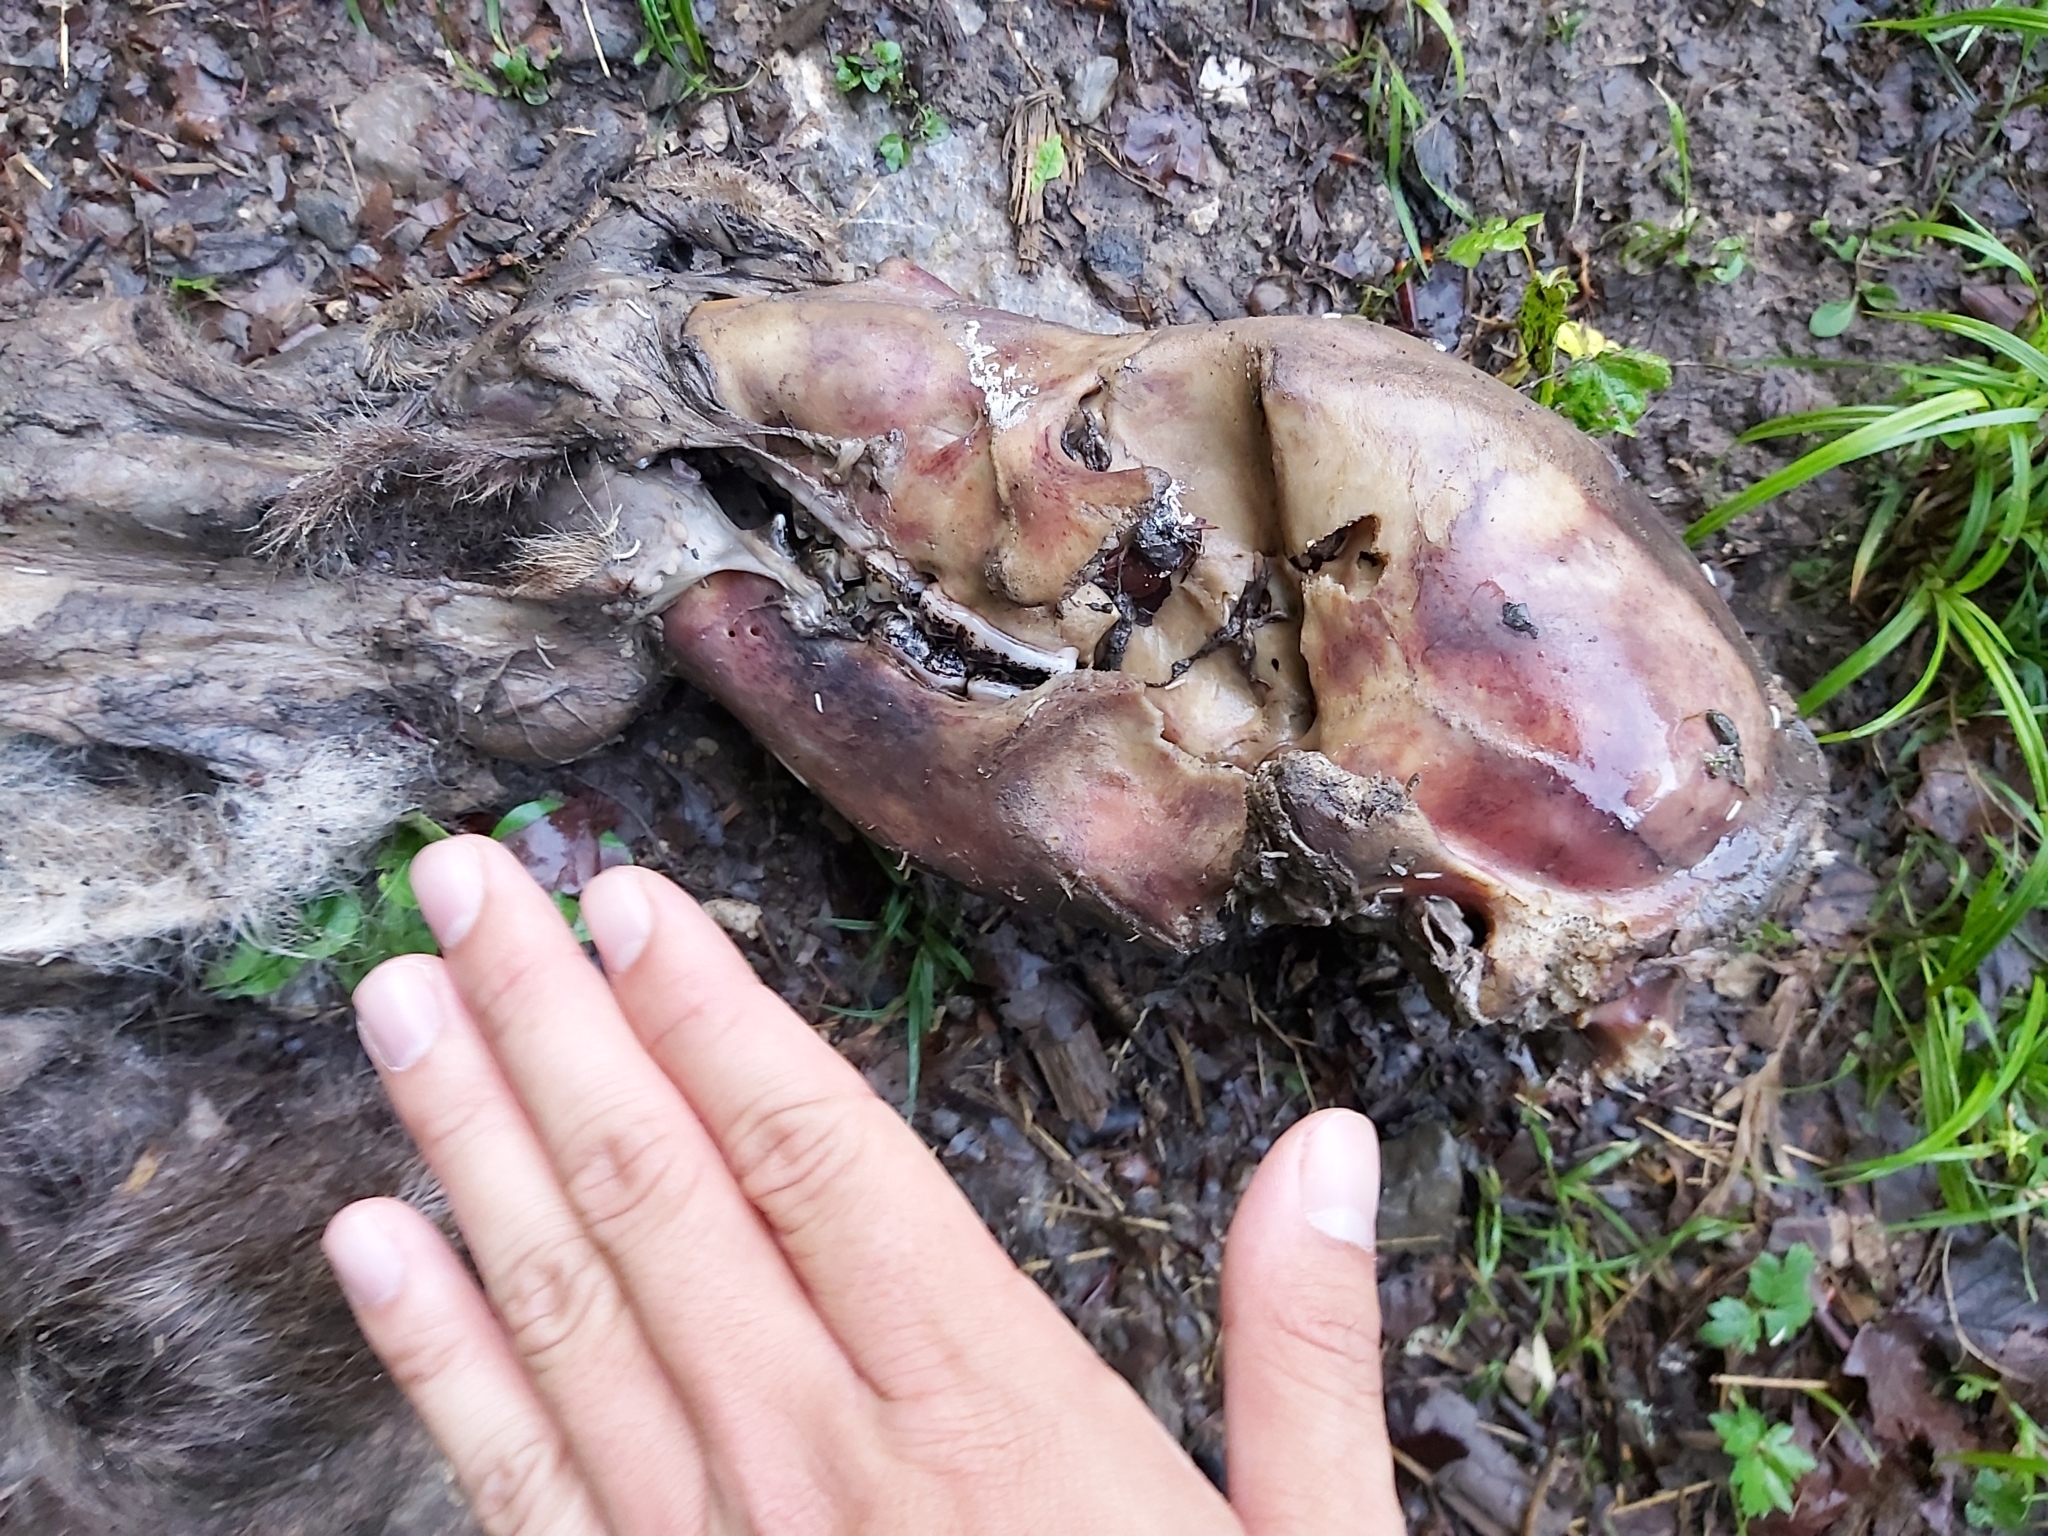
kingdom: Animalia
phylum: Chordata
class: Mammalia
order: Carnivora
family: Ursidae
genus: Ursus
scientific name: Ursus arctos
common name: Brown bear
